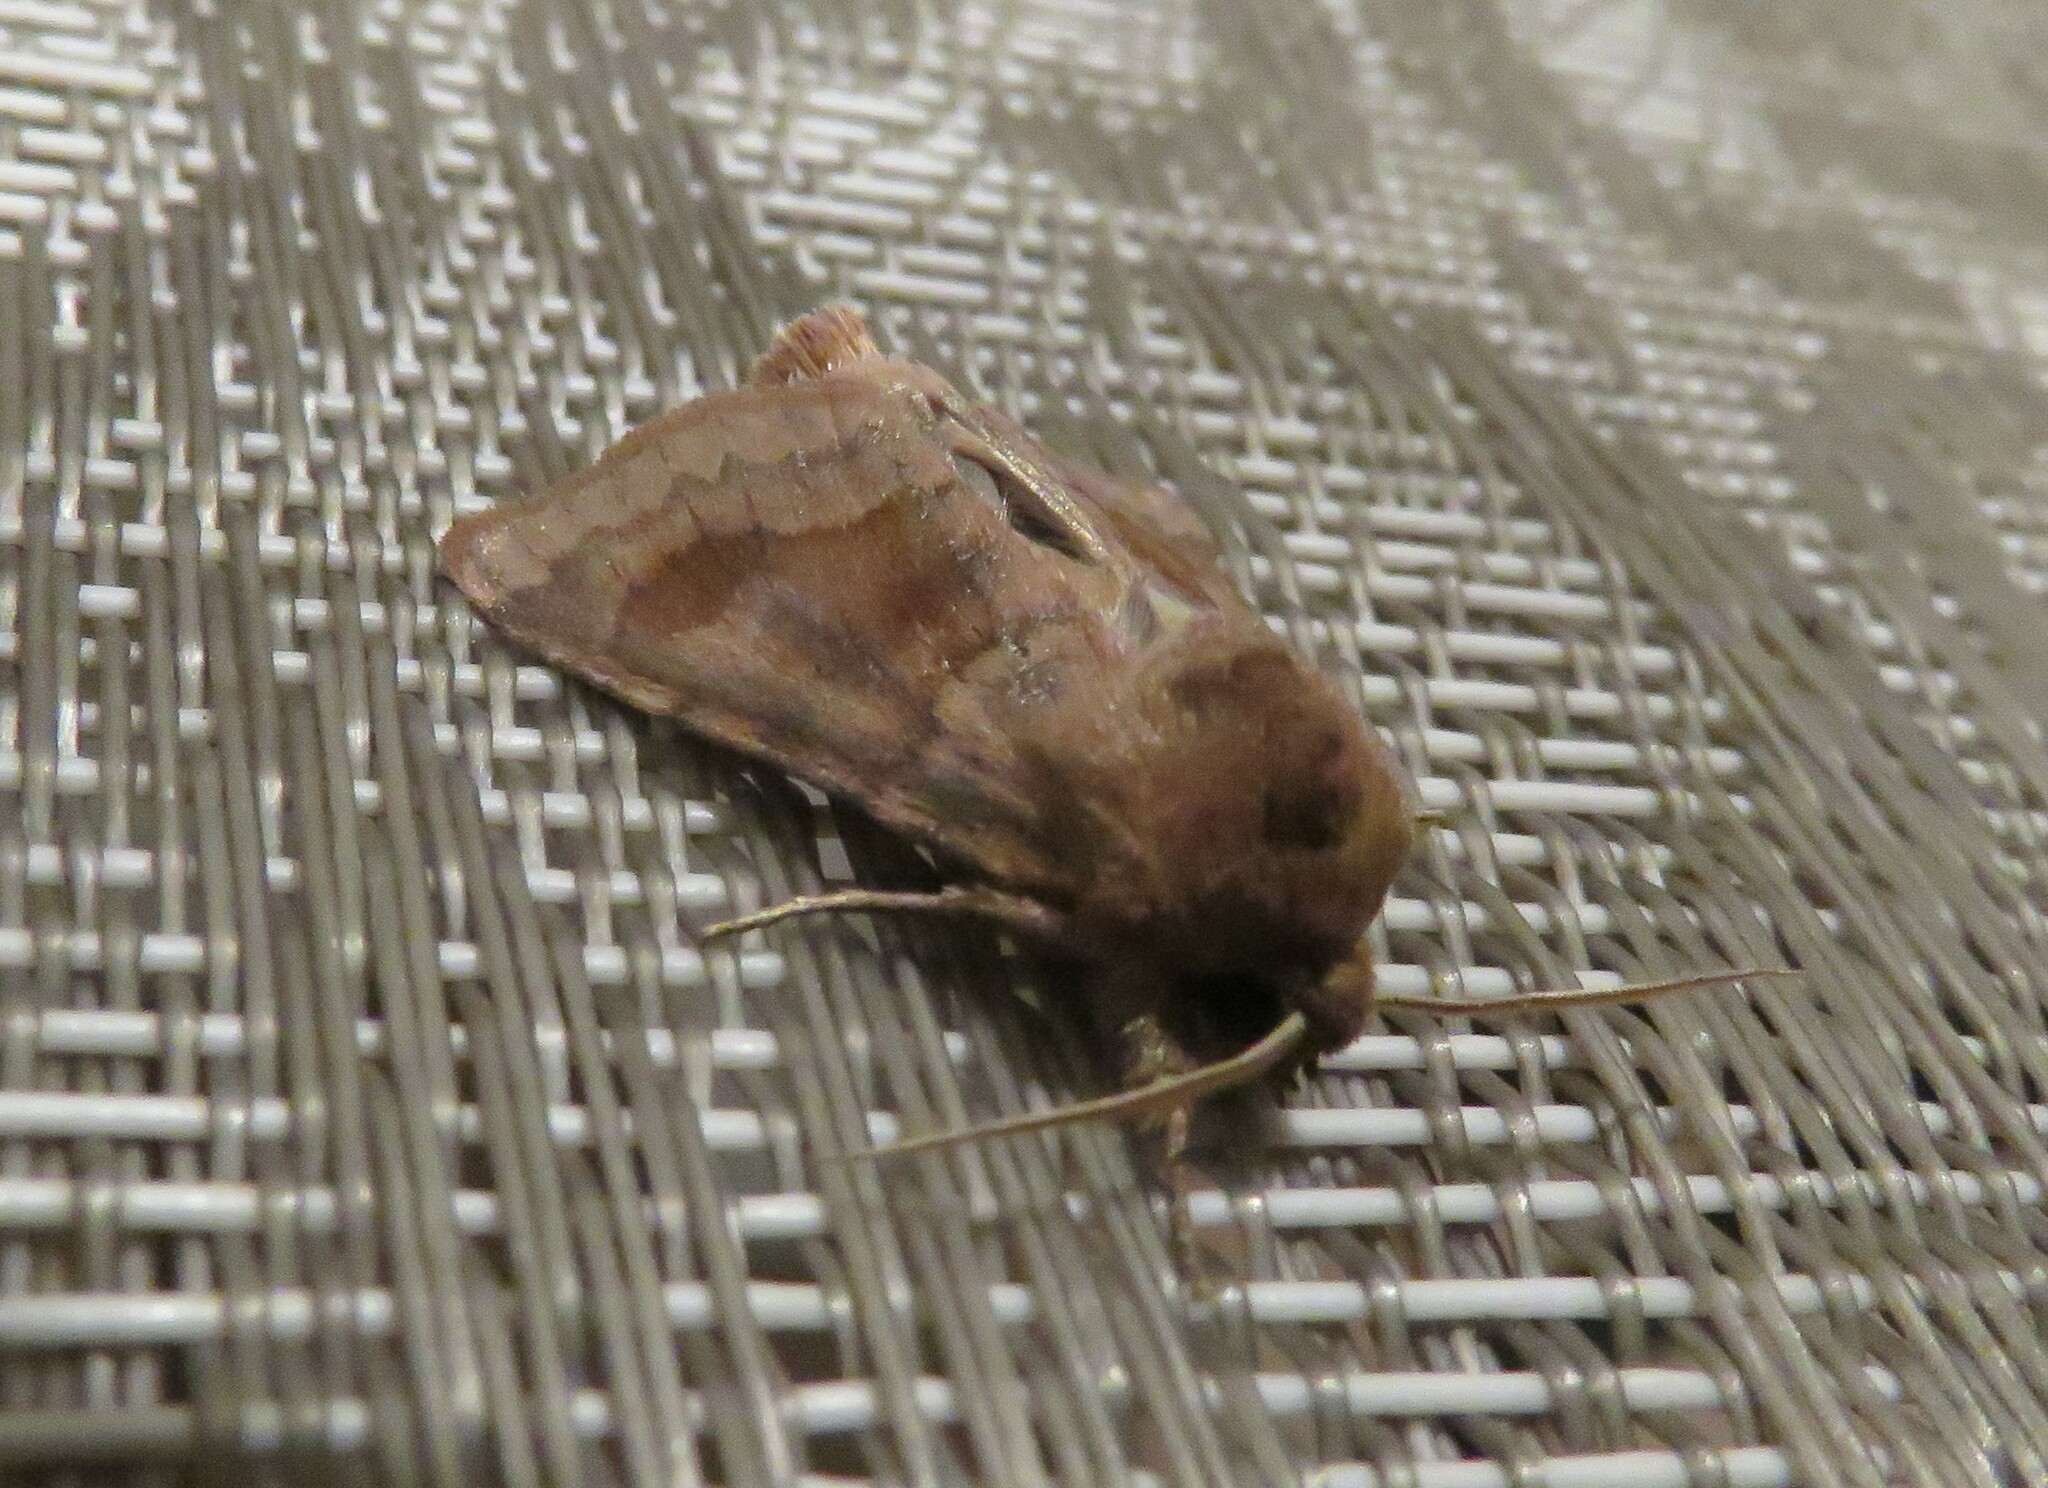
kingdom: Animalia
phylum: Arthropoda
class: Insecta
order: Lepidoptera
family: Noctuidae
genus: Nephelodes
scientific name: Nephelodes minians
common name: Bronzed cutworm
